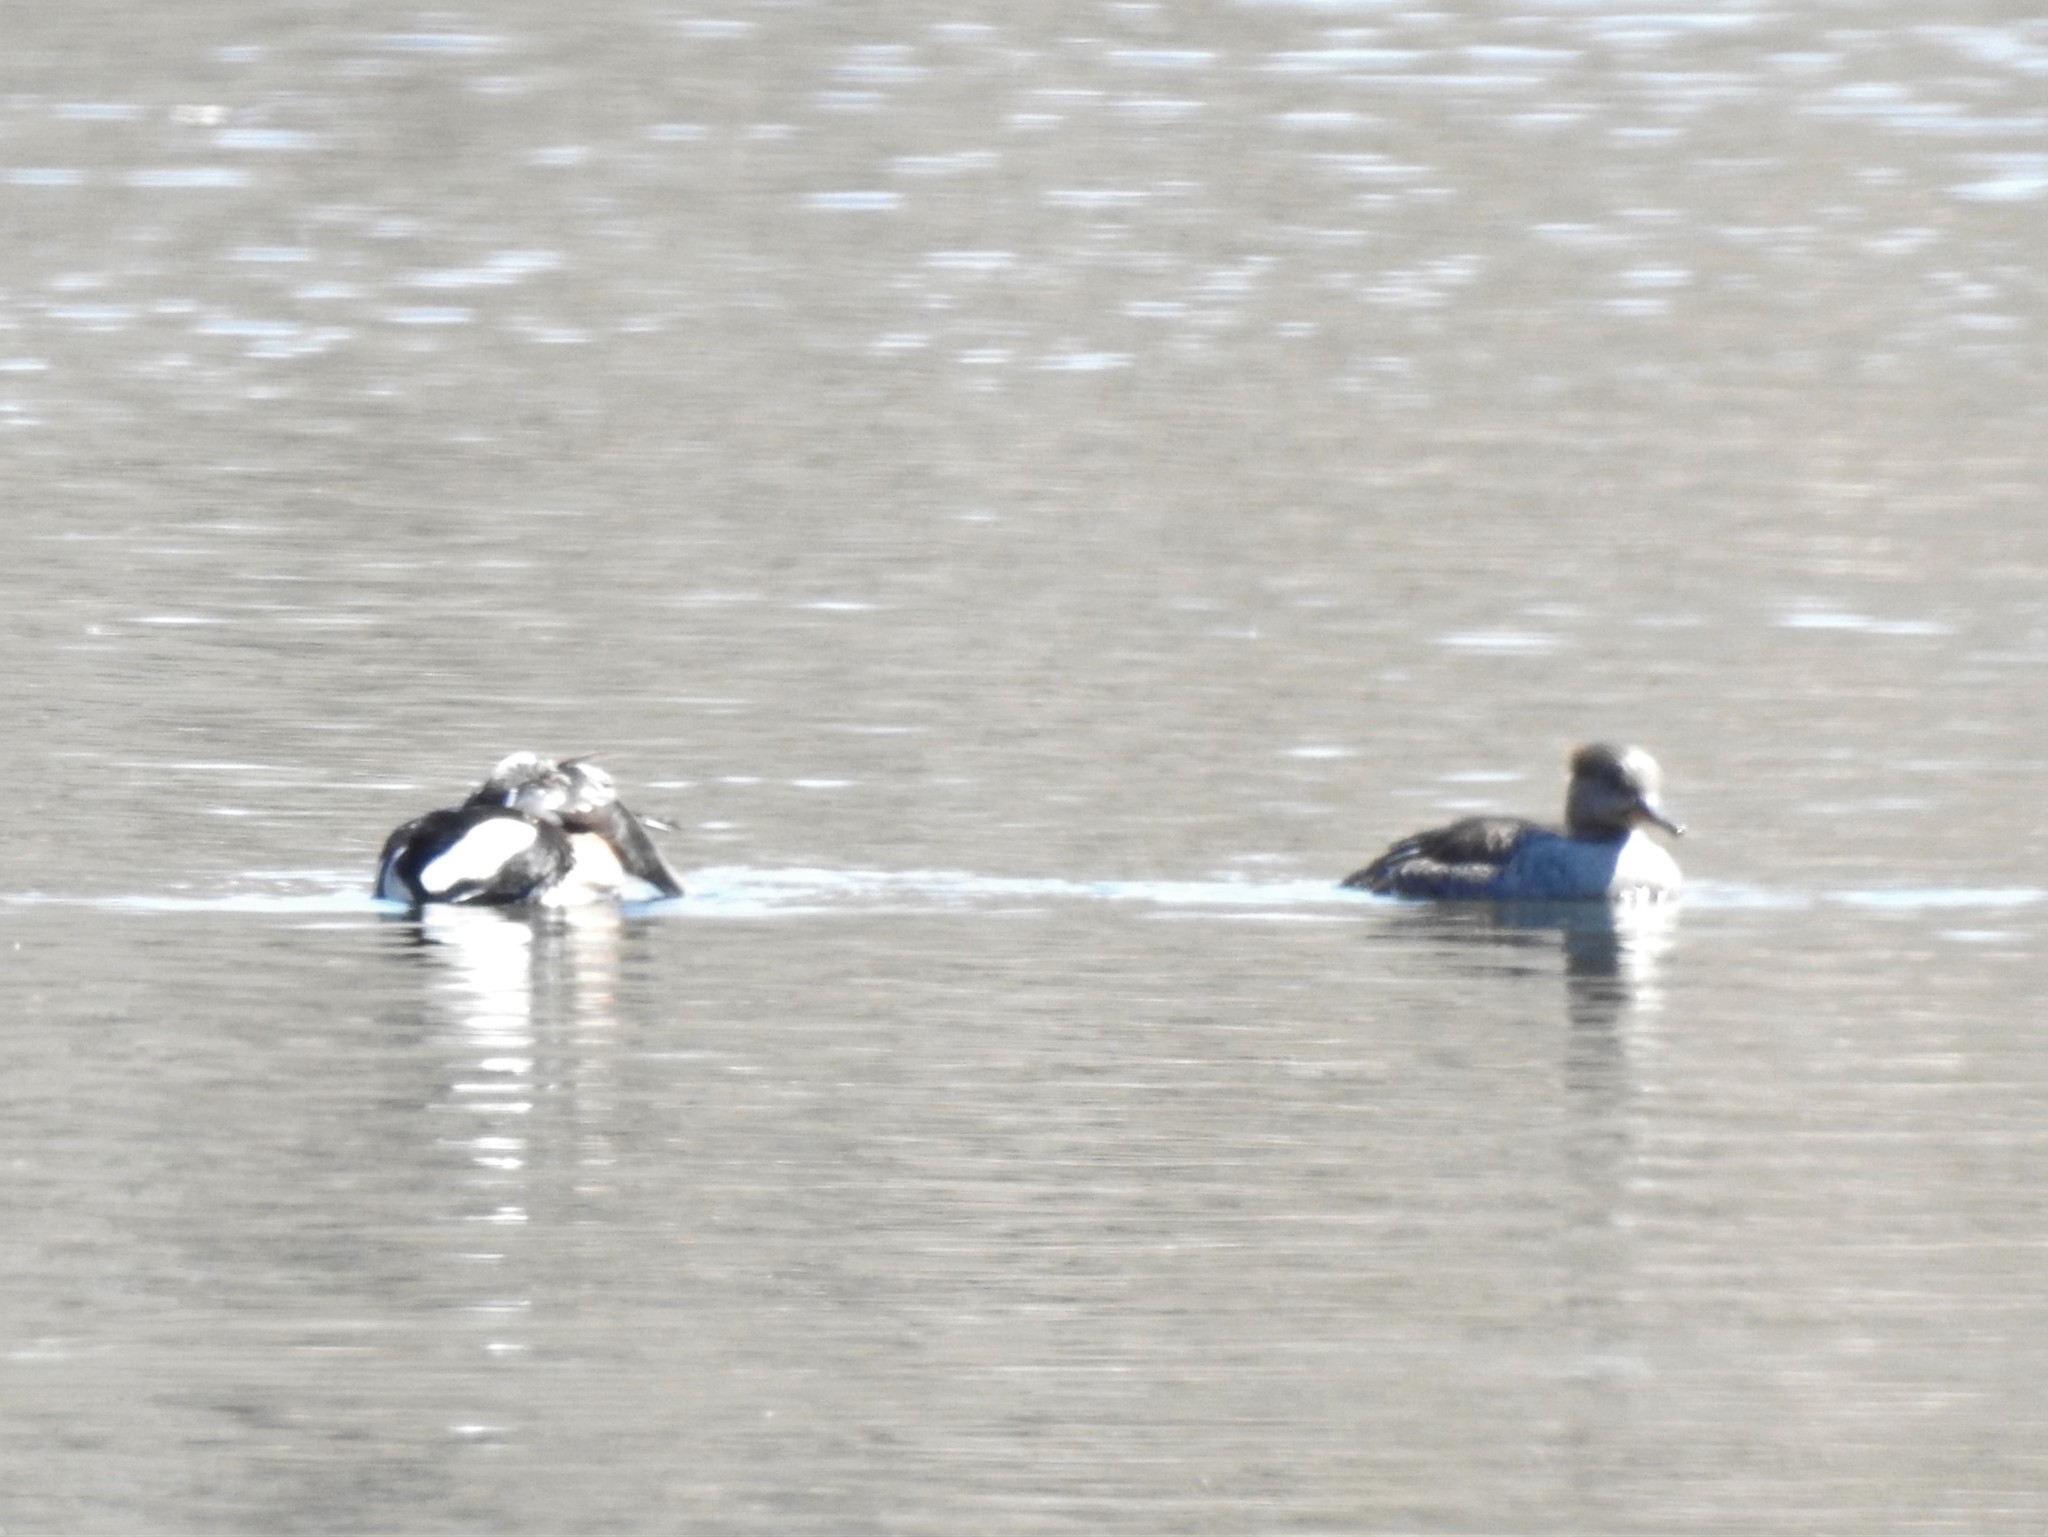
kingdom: Animalia
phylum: Chordata
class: Aves
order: Anseriformes
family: Anatidae
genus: Lophodytes
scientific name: Lophodytes cucullatus
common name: Hooded merganser
